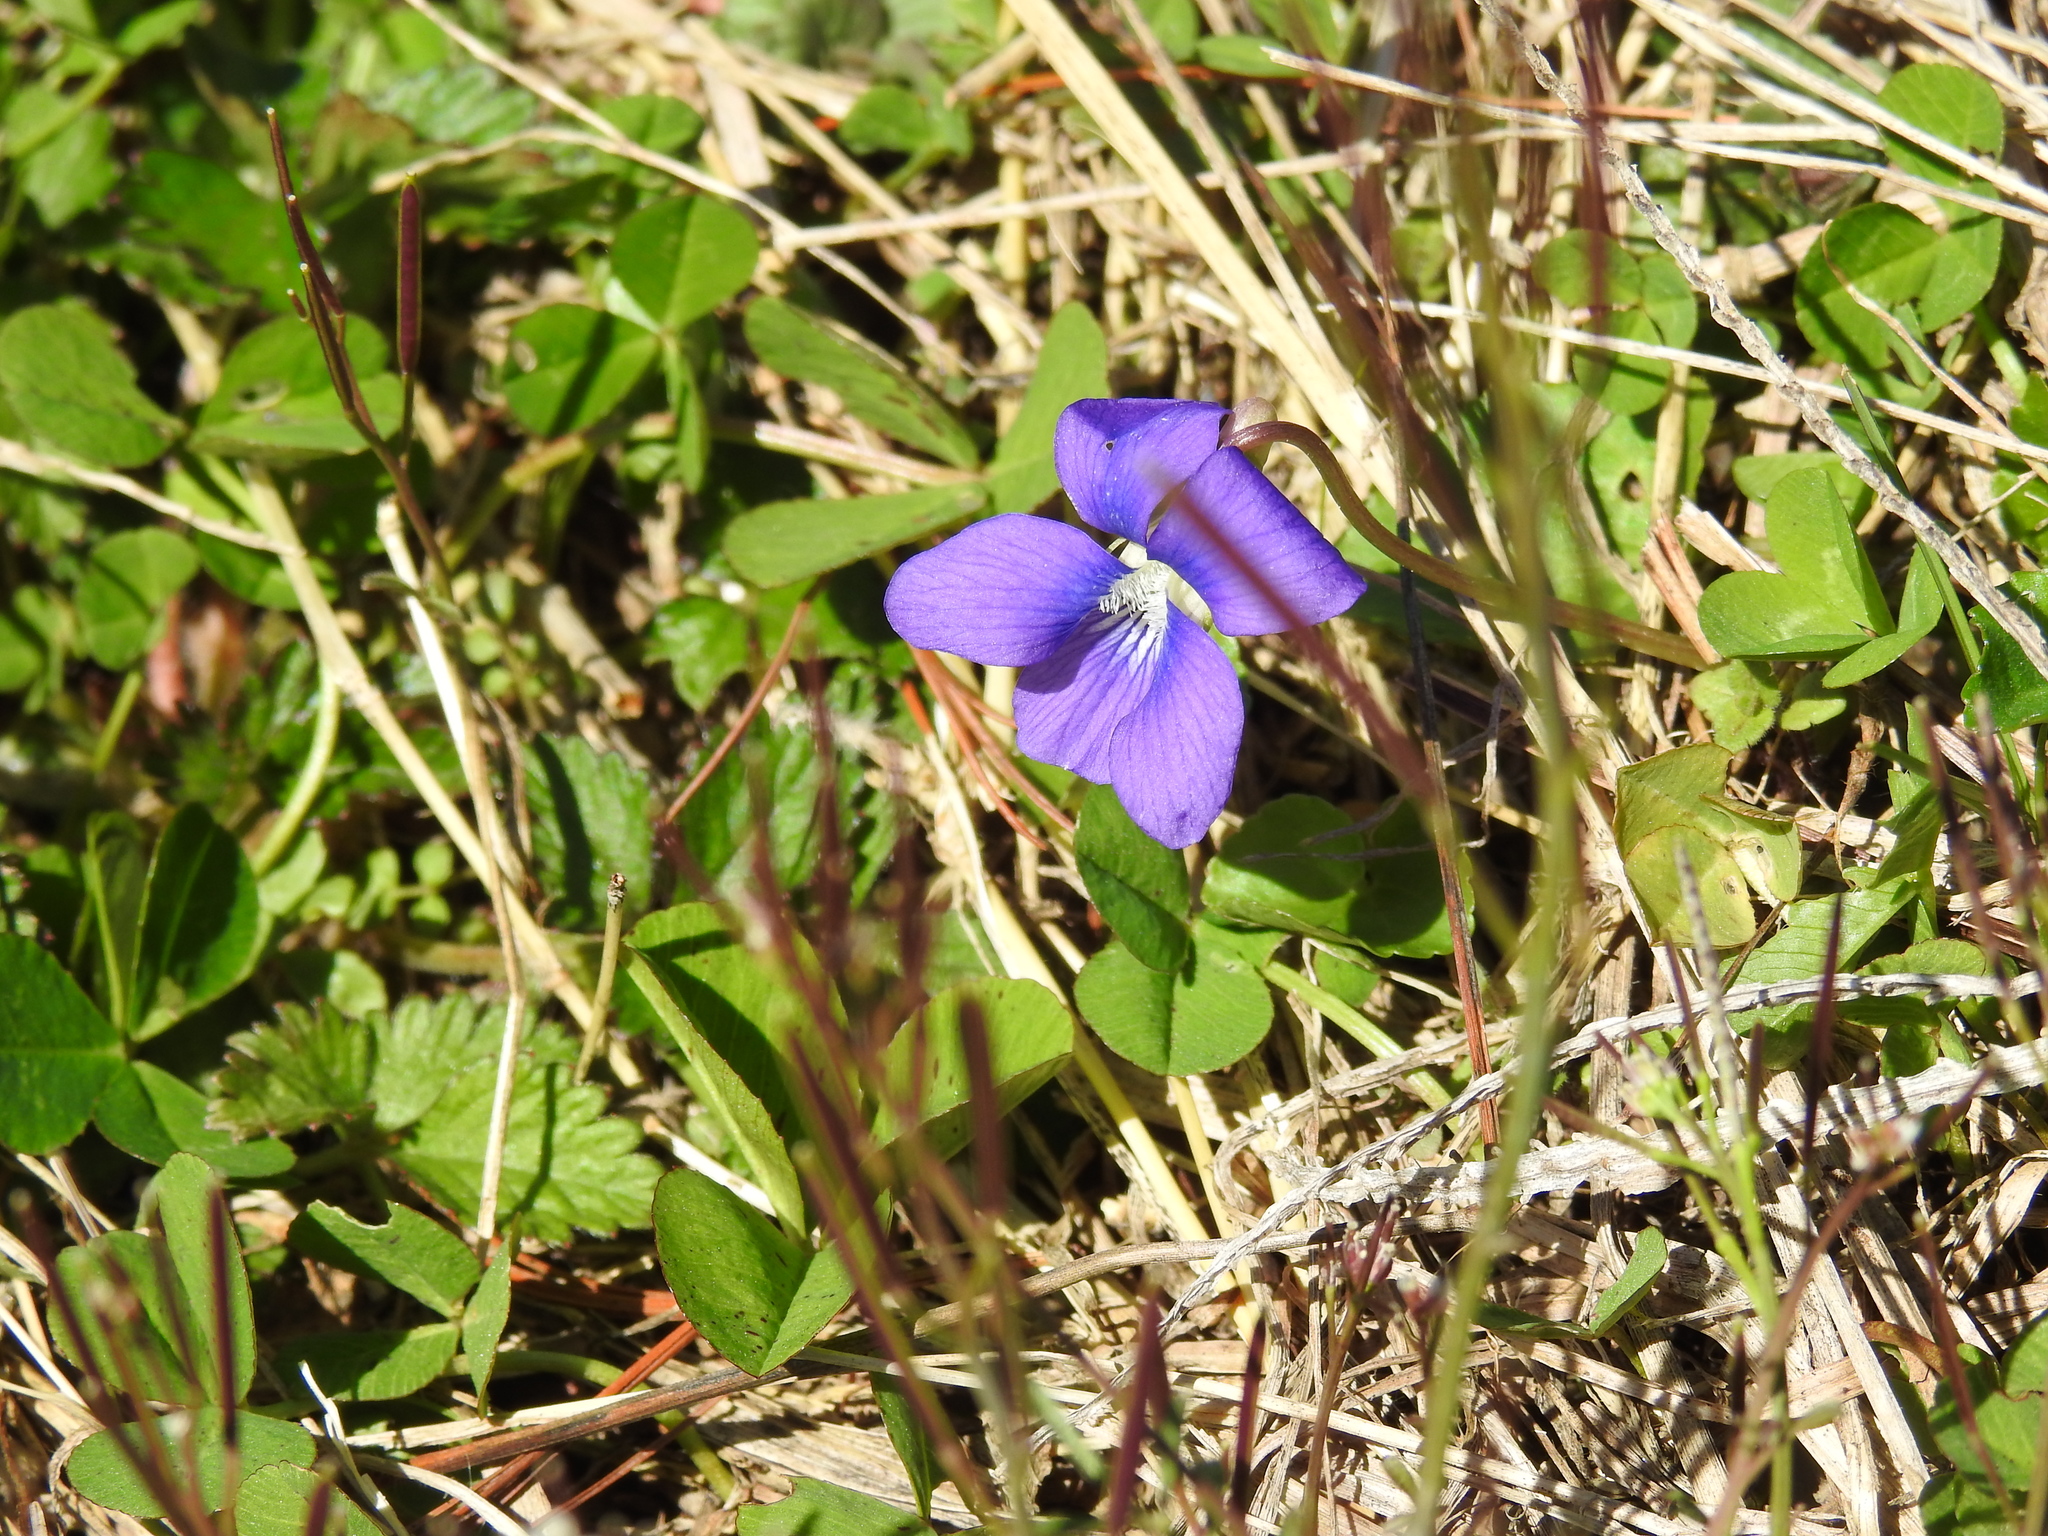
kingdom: Plantae
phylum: Tracheophyta
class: Magnoliopsida
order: Malpighiales
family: Violaceae
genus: Viola
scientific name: Viola sororia
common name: Dooryard violet
